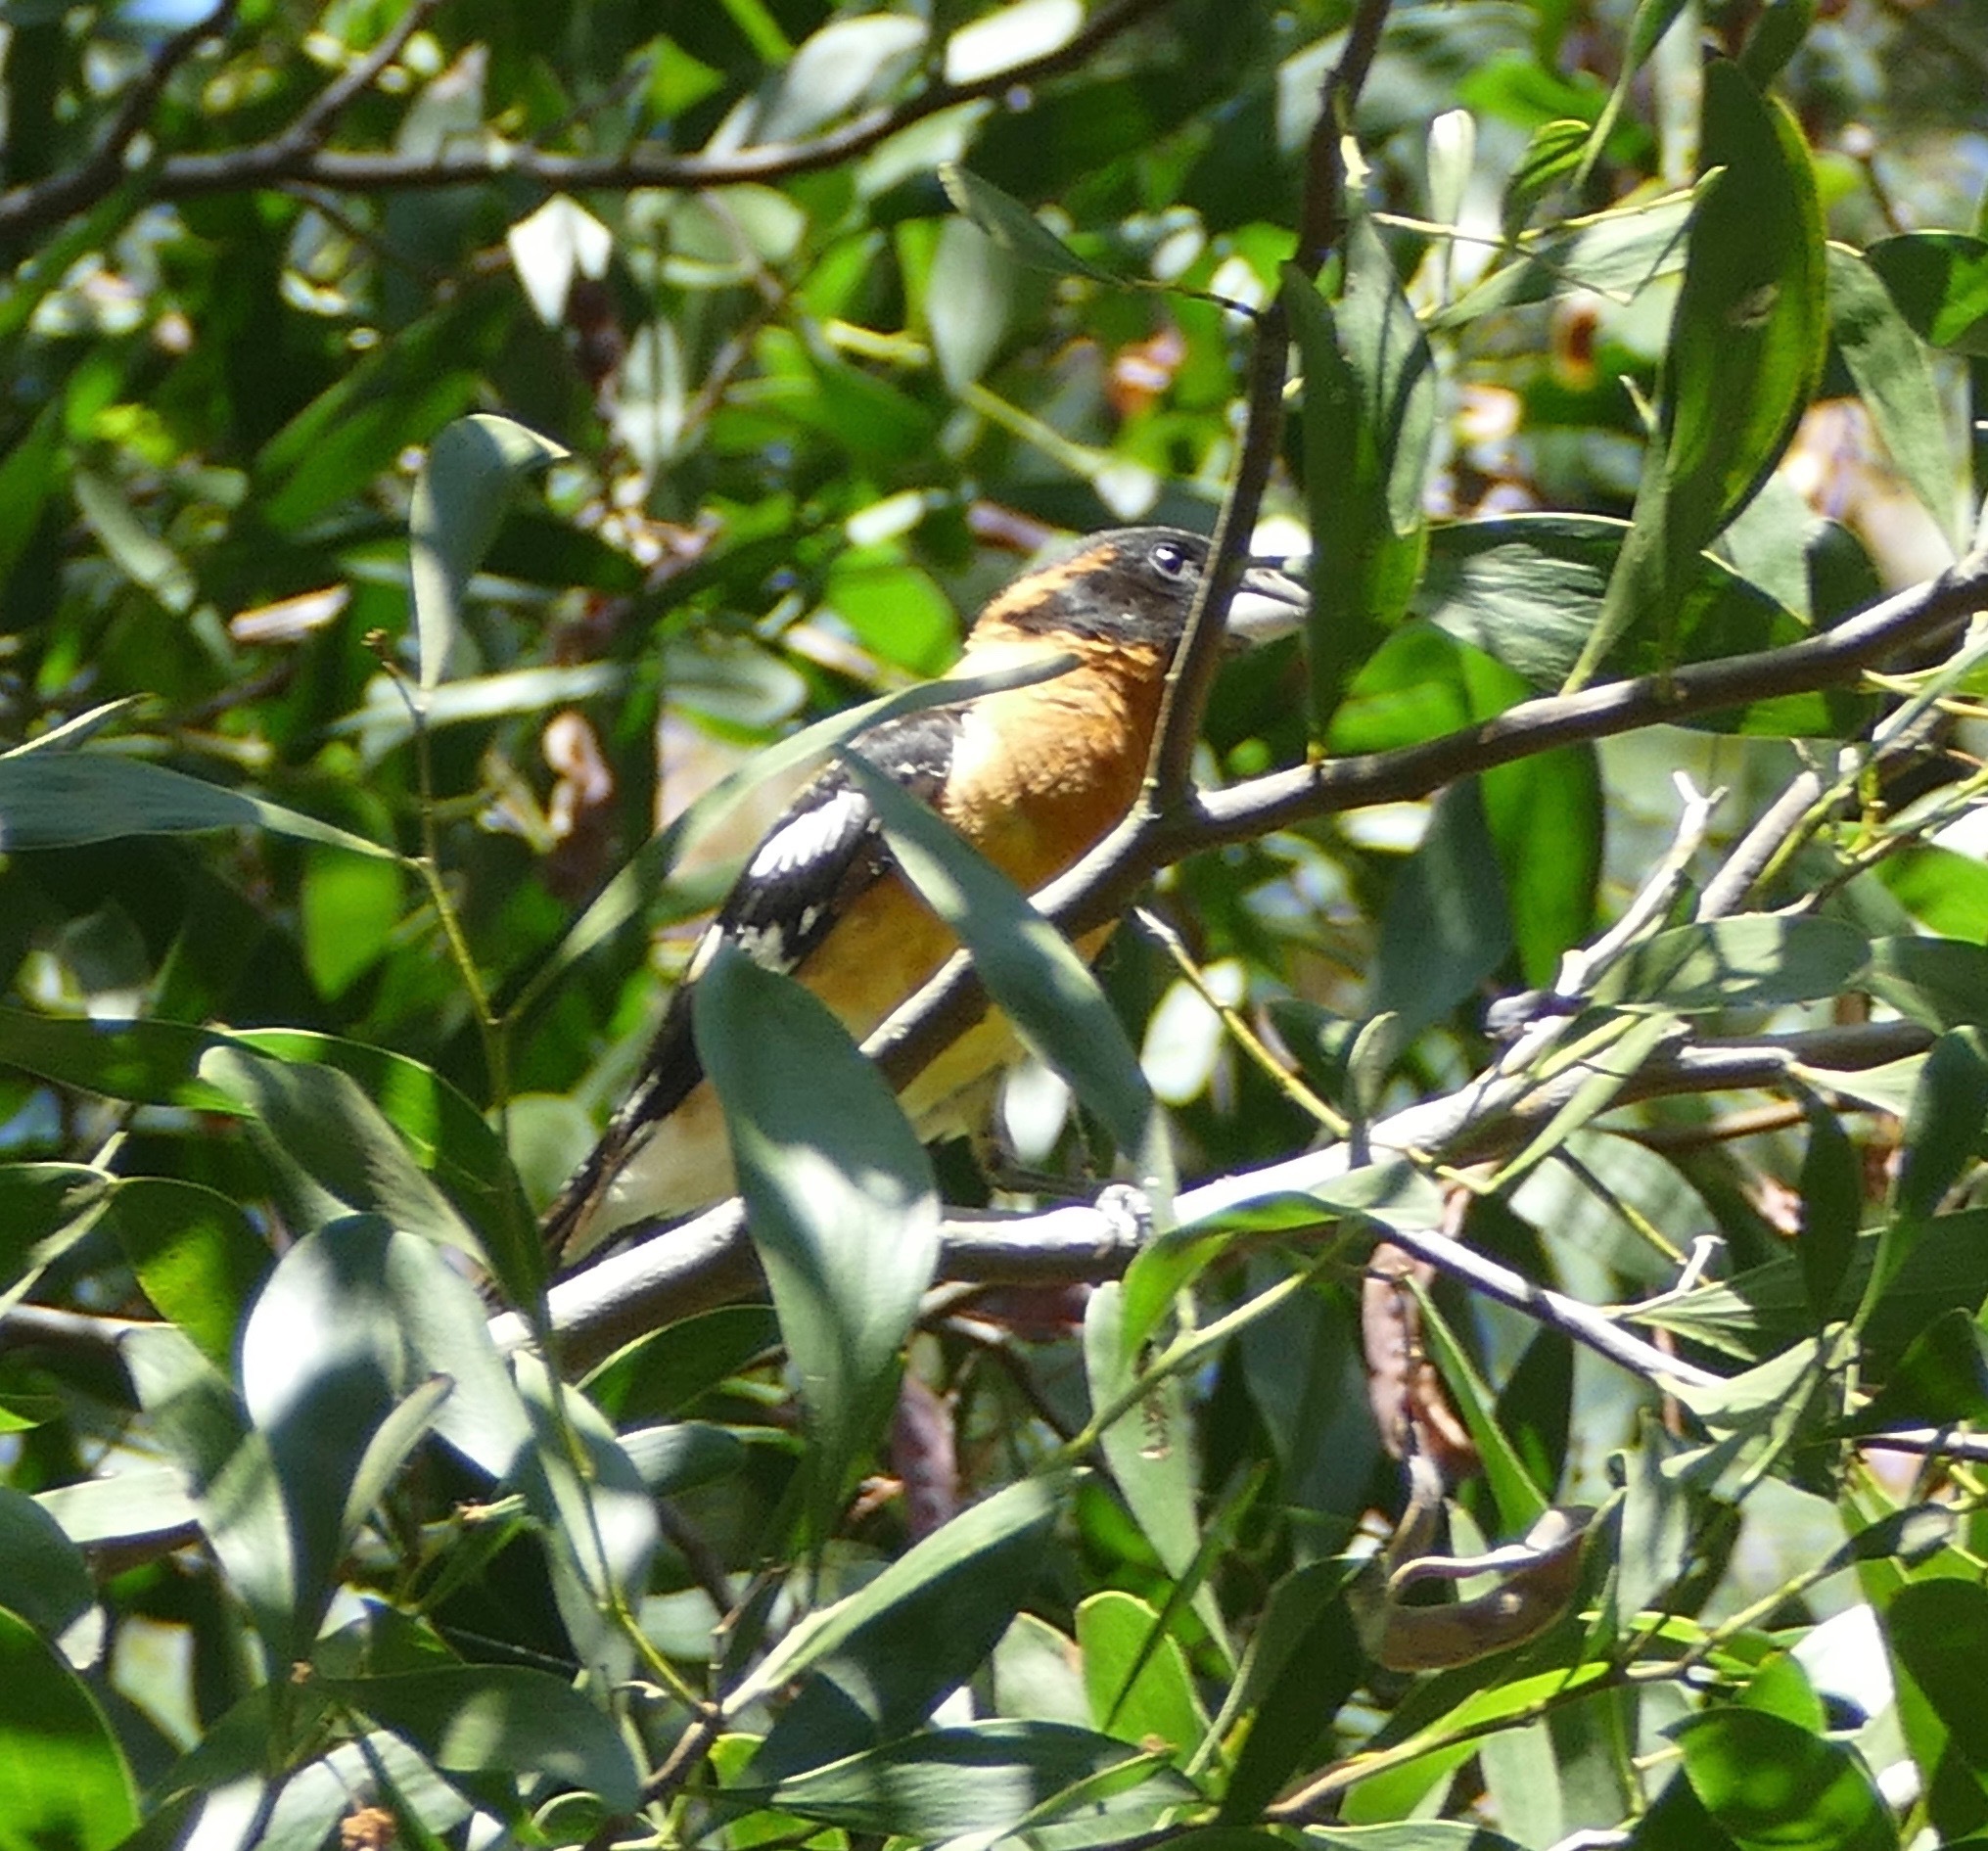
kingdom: Animalia
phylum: Chordata
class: Aves
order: Passeriformes
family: Cardinalidae
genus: Pheucticus
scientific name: Pheucticus melanocephalus
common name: Black-headed grosbeak
